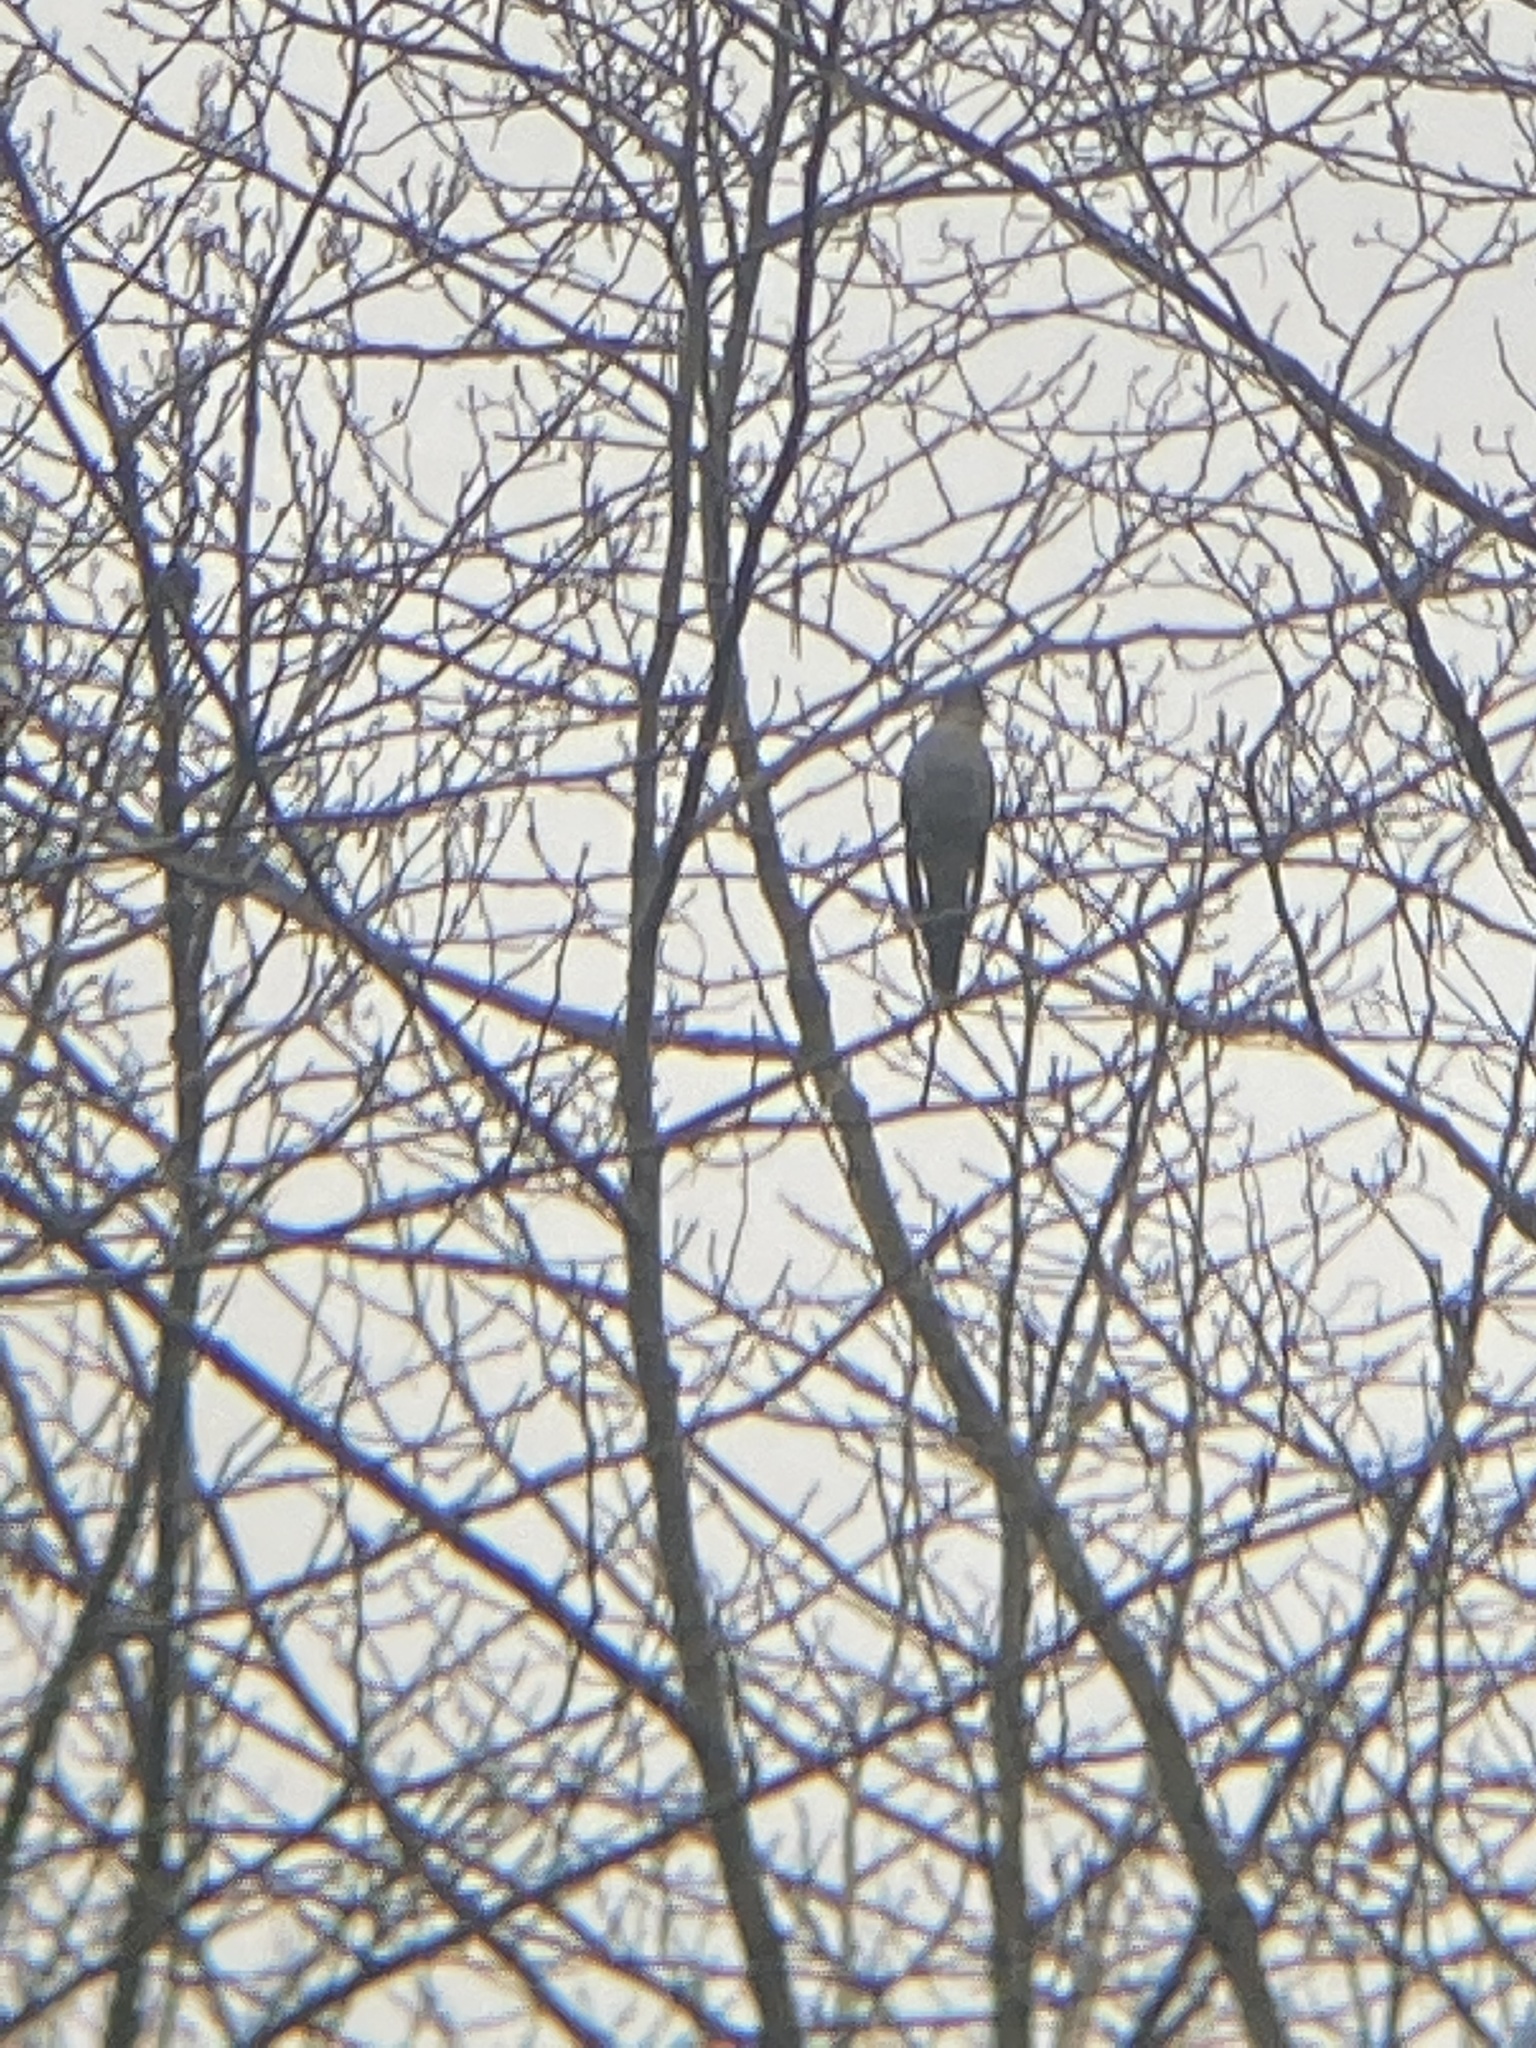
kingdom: Animalia
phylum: Chordata
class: Aves
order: Cuculiformes
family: Cuculidae
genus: Cuculus
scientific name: Cuculus saturatus
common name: Himalayan cuckoo
